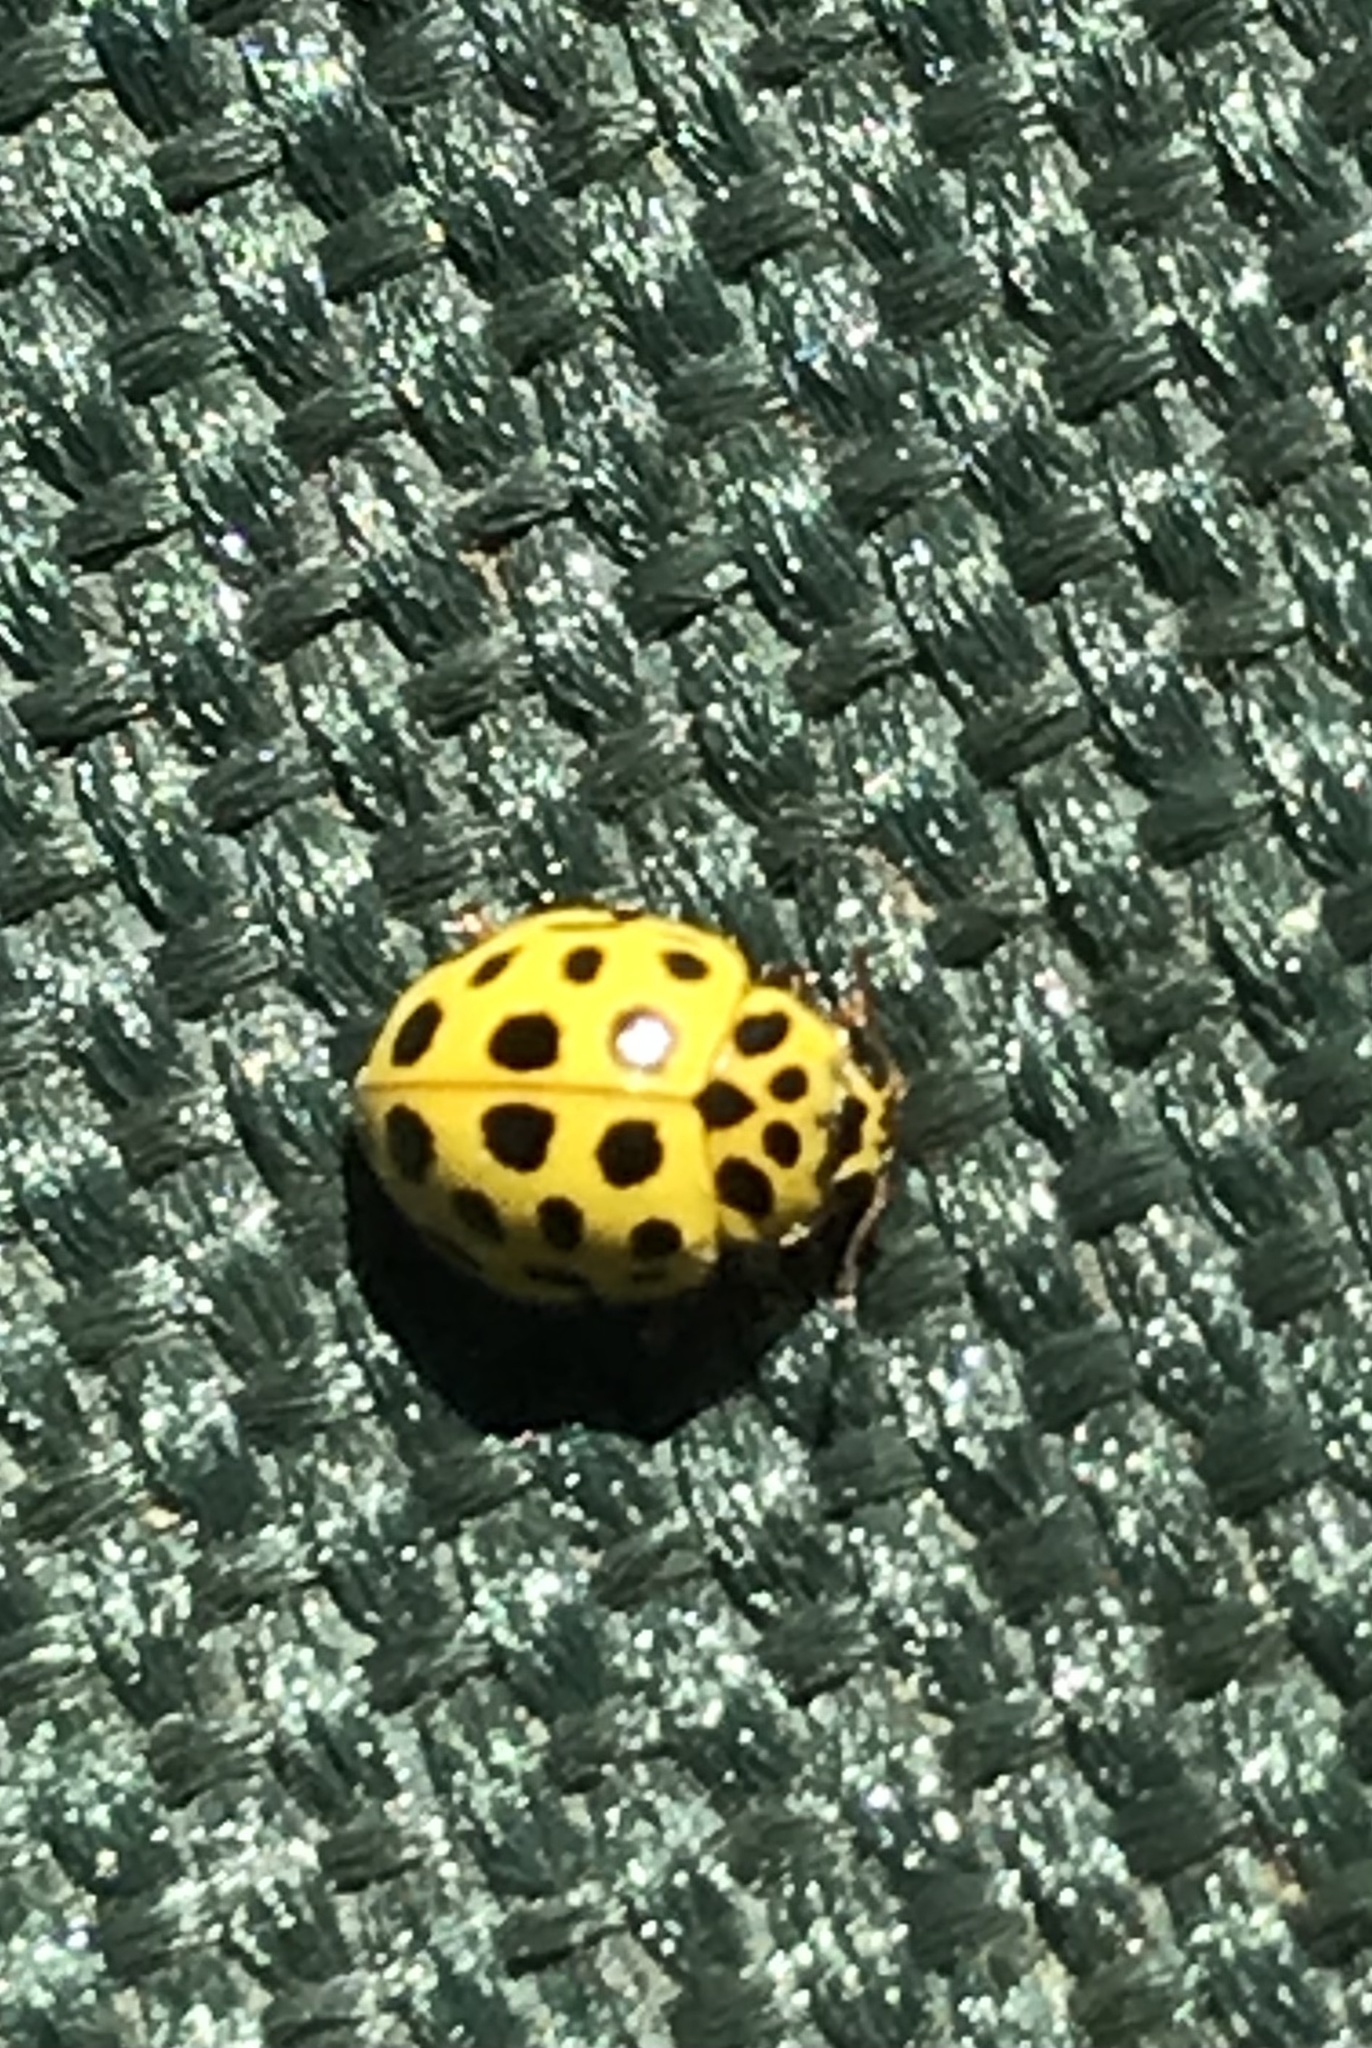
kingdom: Animalia
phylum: Arthropoda
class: Insecta
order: Coleoptera
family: Coccinellidae
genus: Psyllobora
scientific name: Psyllobora vigintiduopunctata
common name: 22-spot ladybird
